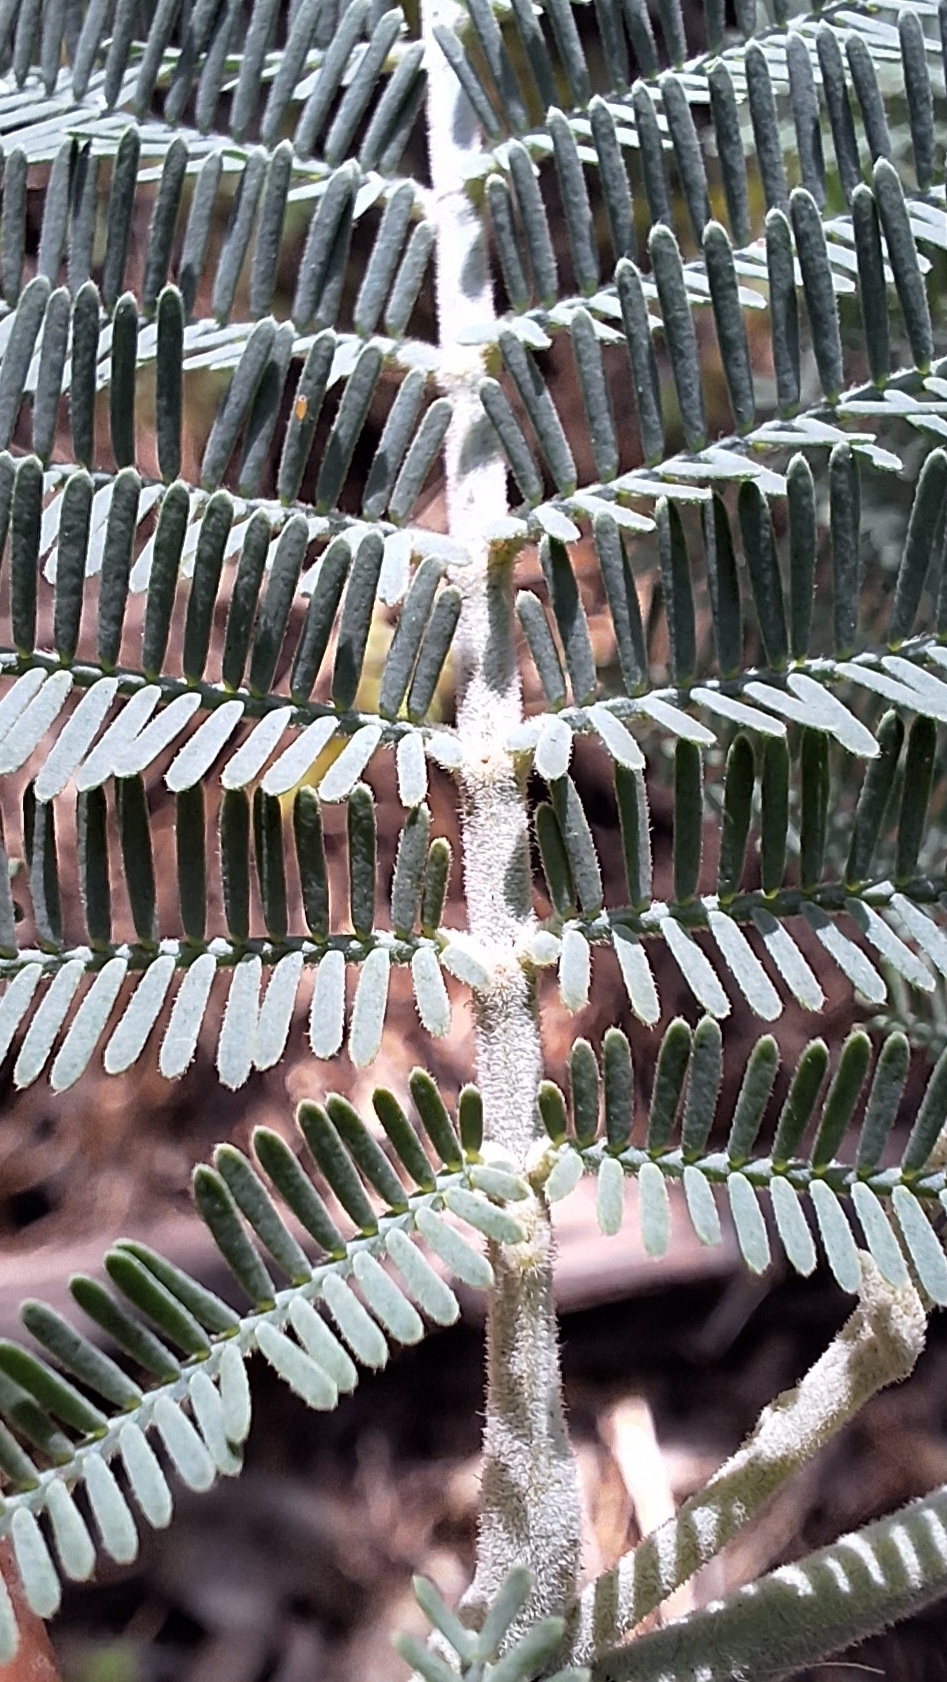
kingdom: Plantae
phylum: Tracheophyta
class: Magnoliopsida
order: Fabales
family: Fabaceae
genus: Acacia
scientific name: Acacia dealbata
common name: Silver wattle
